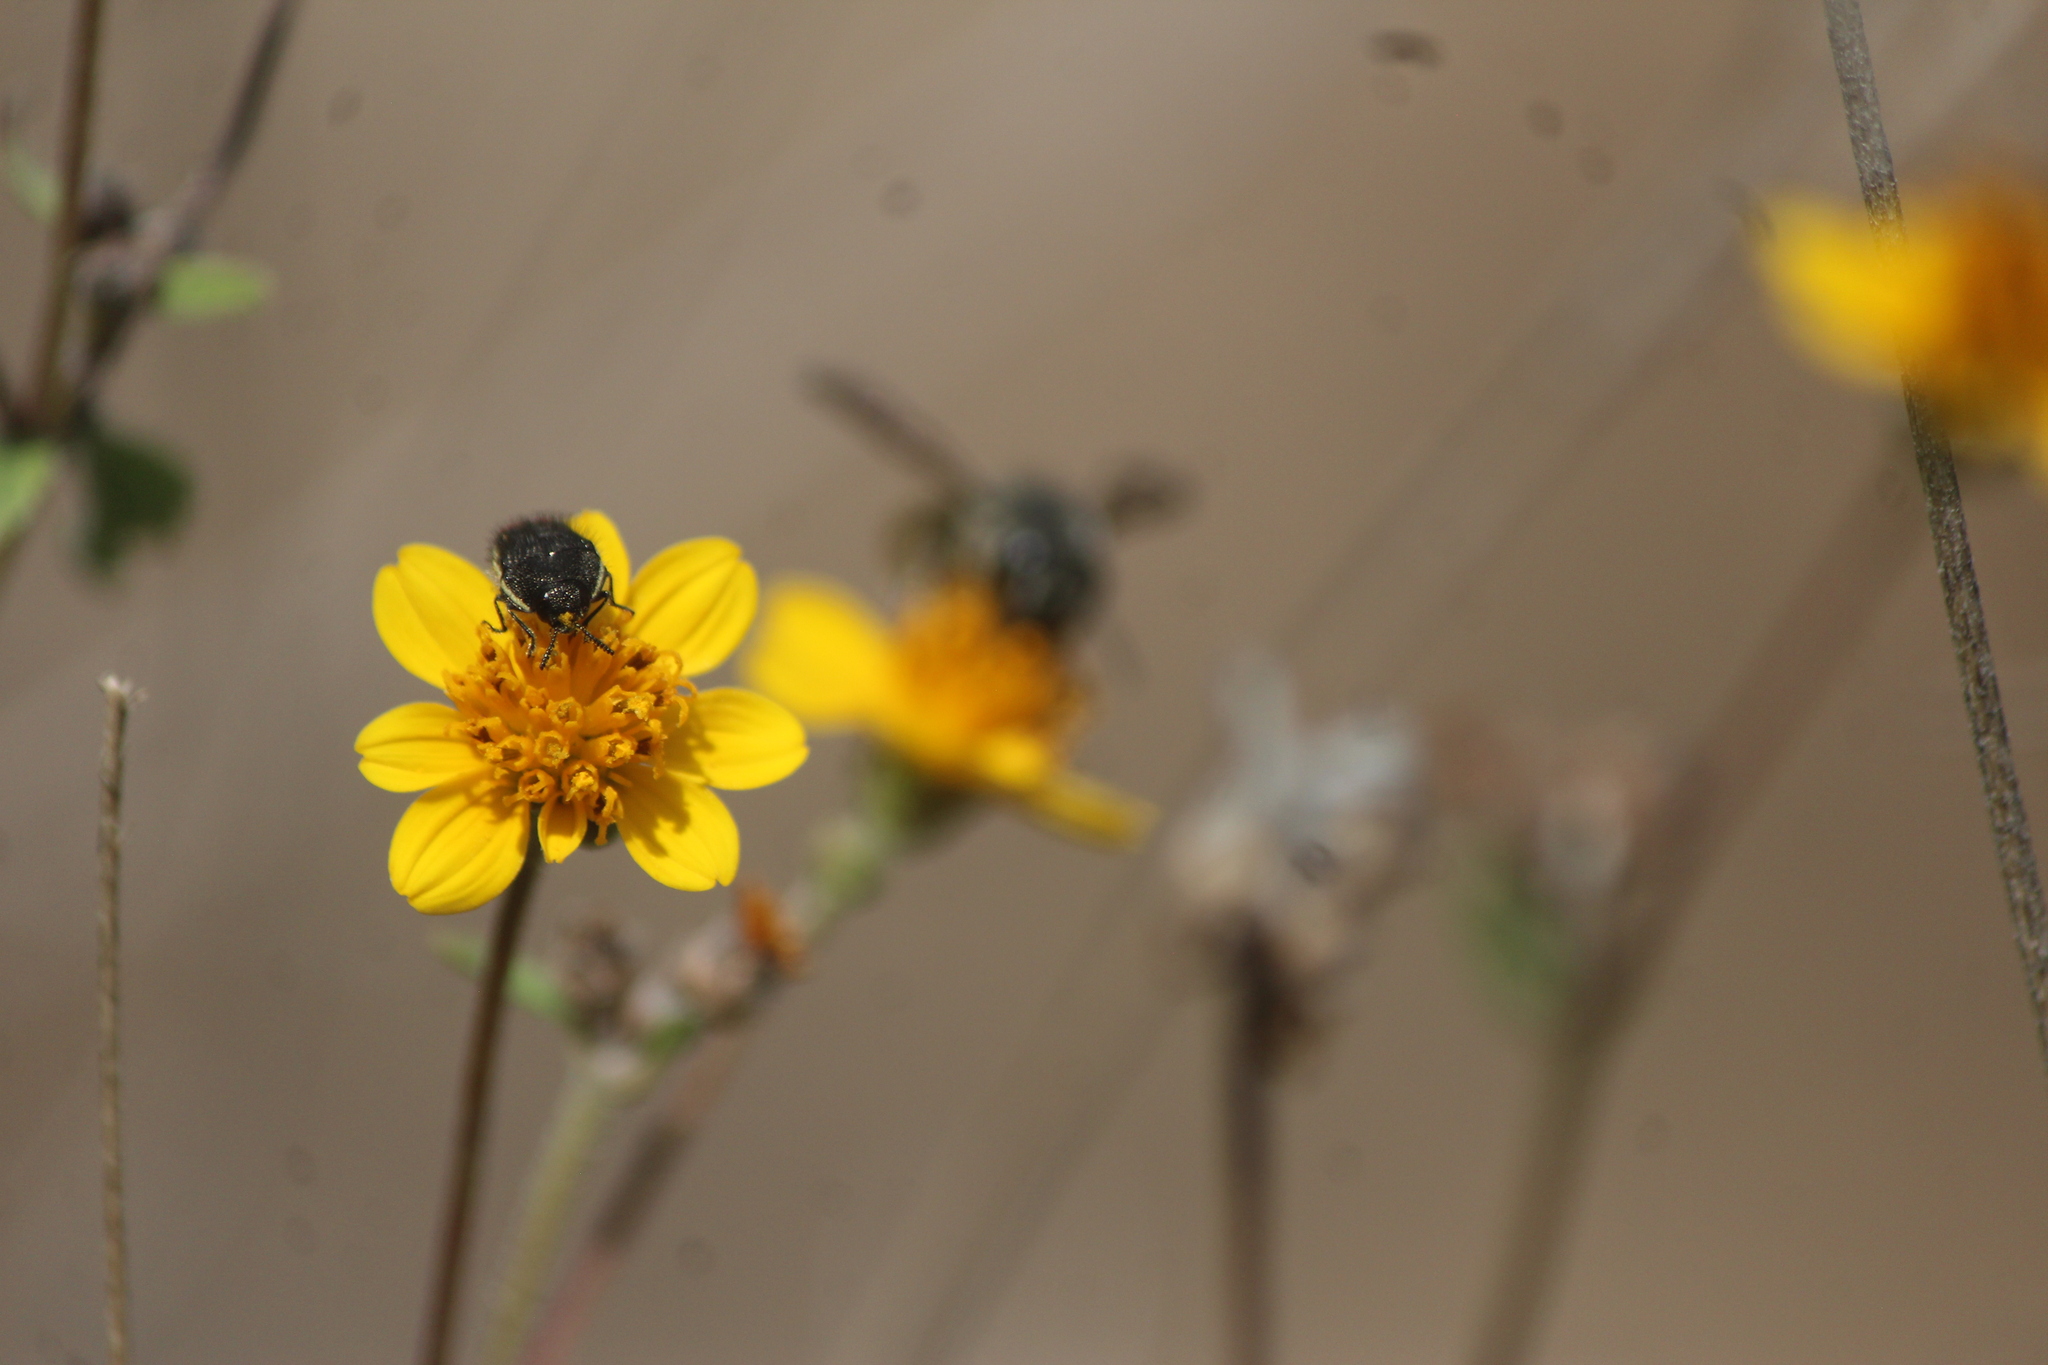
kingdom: Animalia
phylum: Arthropoda
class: Insecta
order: Coleoptera
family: Buprestidae
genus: Acmaeodera
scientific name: Acmaeodera flavomarginata
